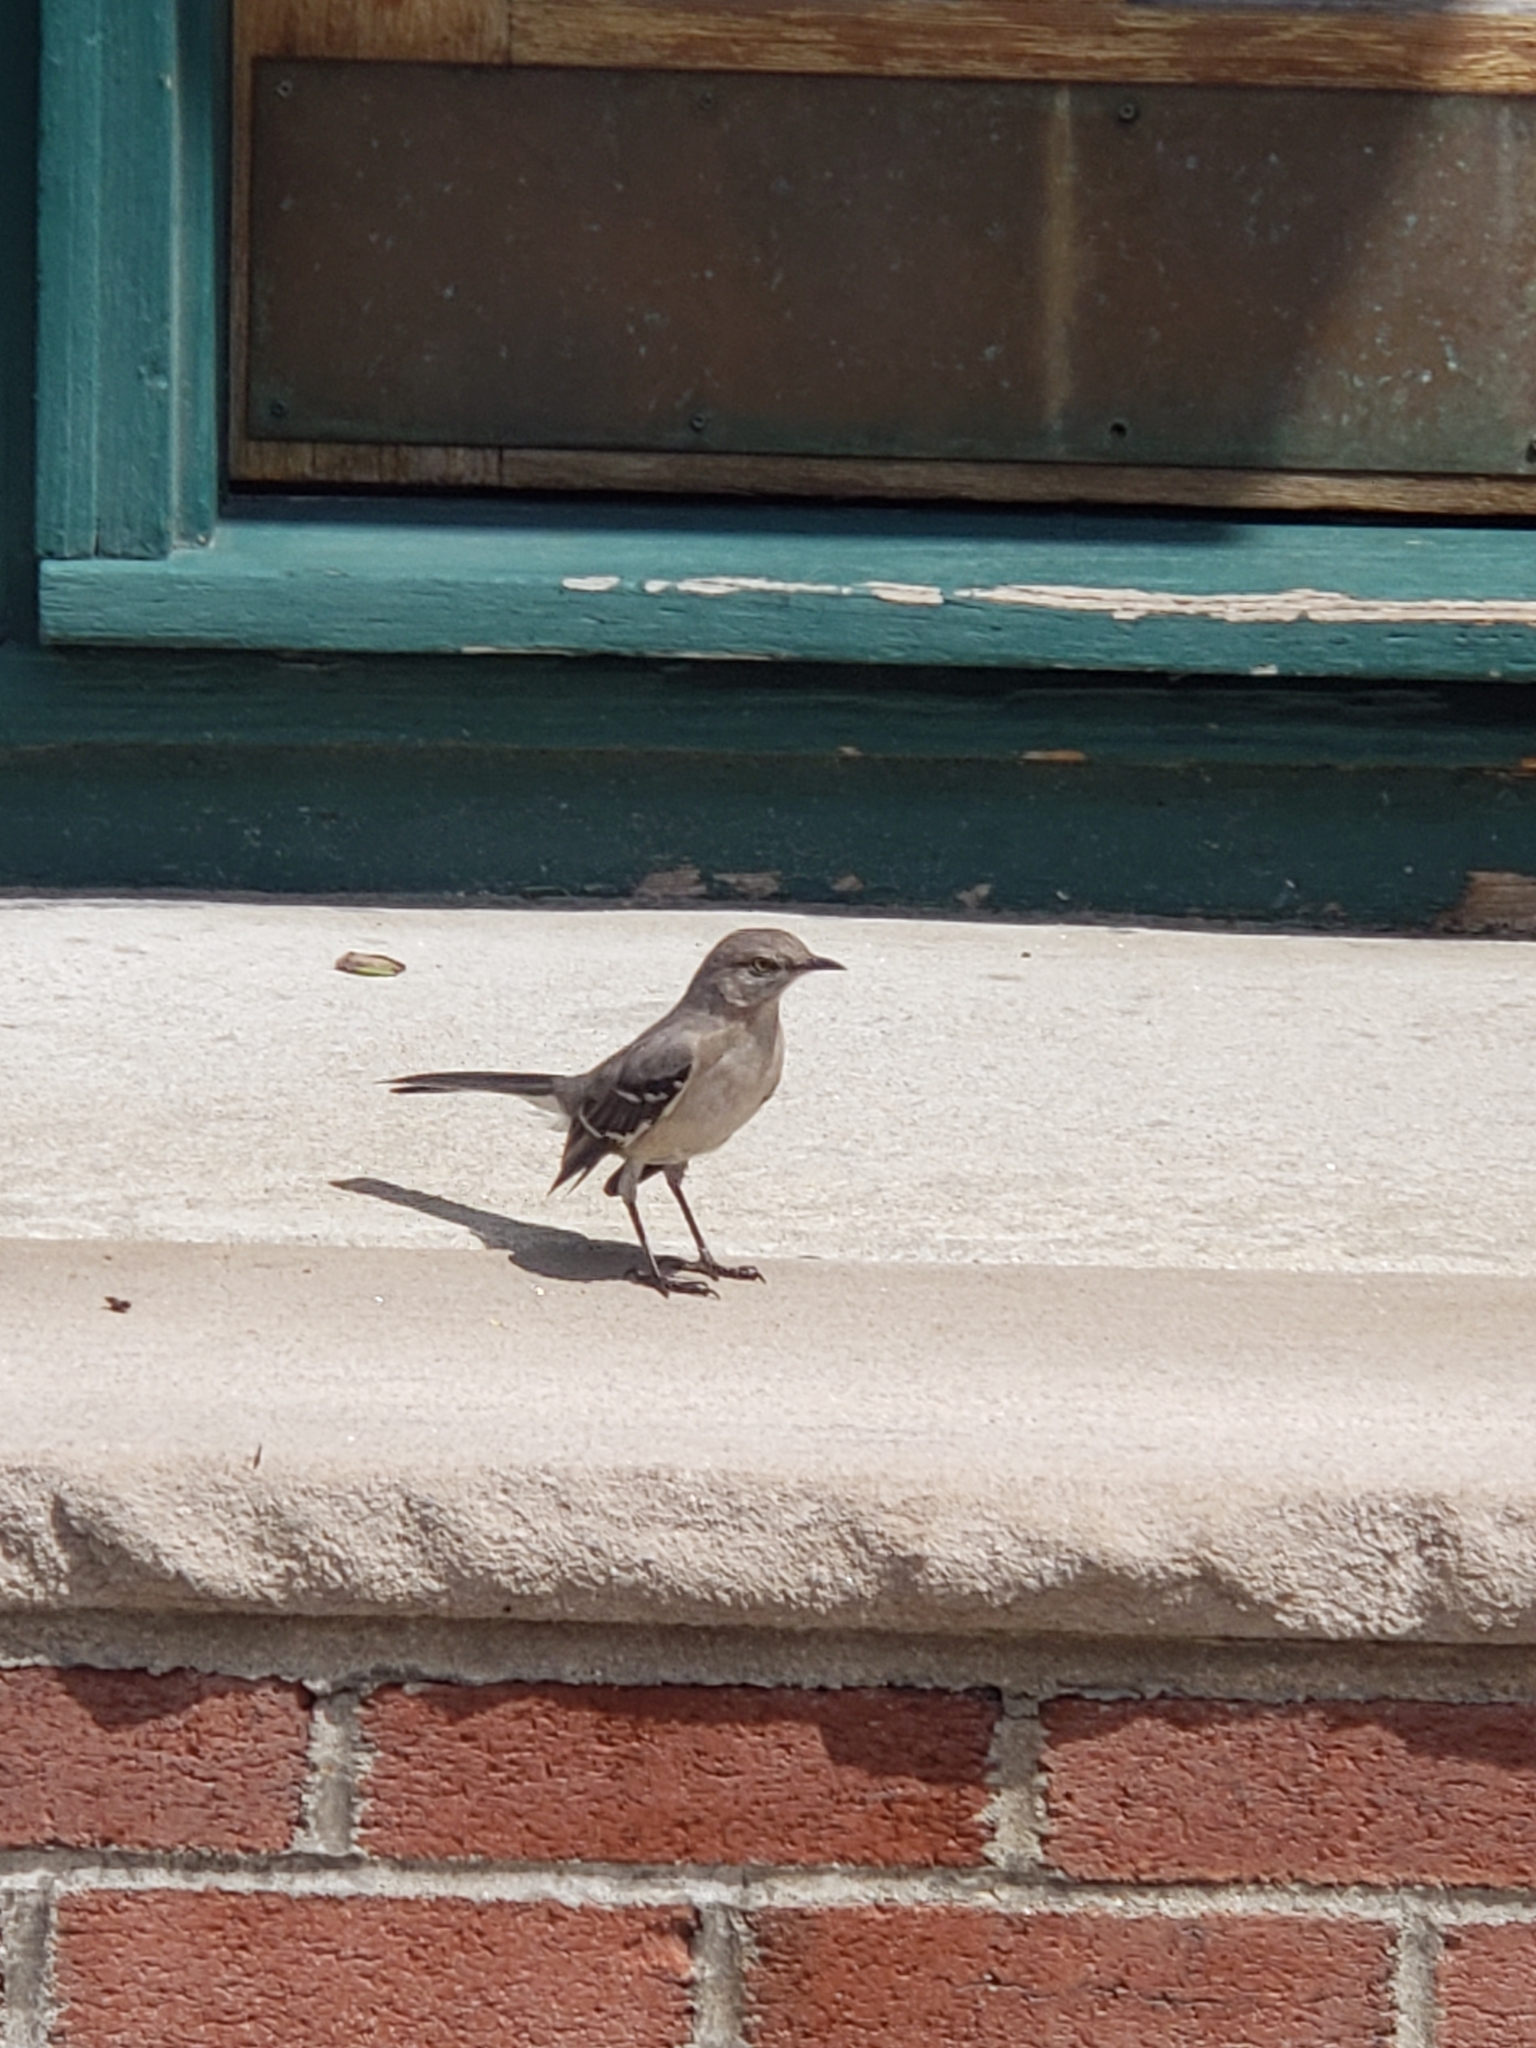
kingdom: Animalia
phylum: Chordata
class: Aves
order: Passeriformes
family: Mimidae
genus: Mimus
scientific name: Mimus polyglottos
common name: Northern mockingbird
